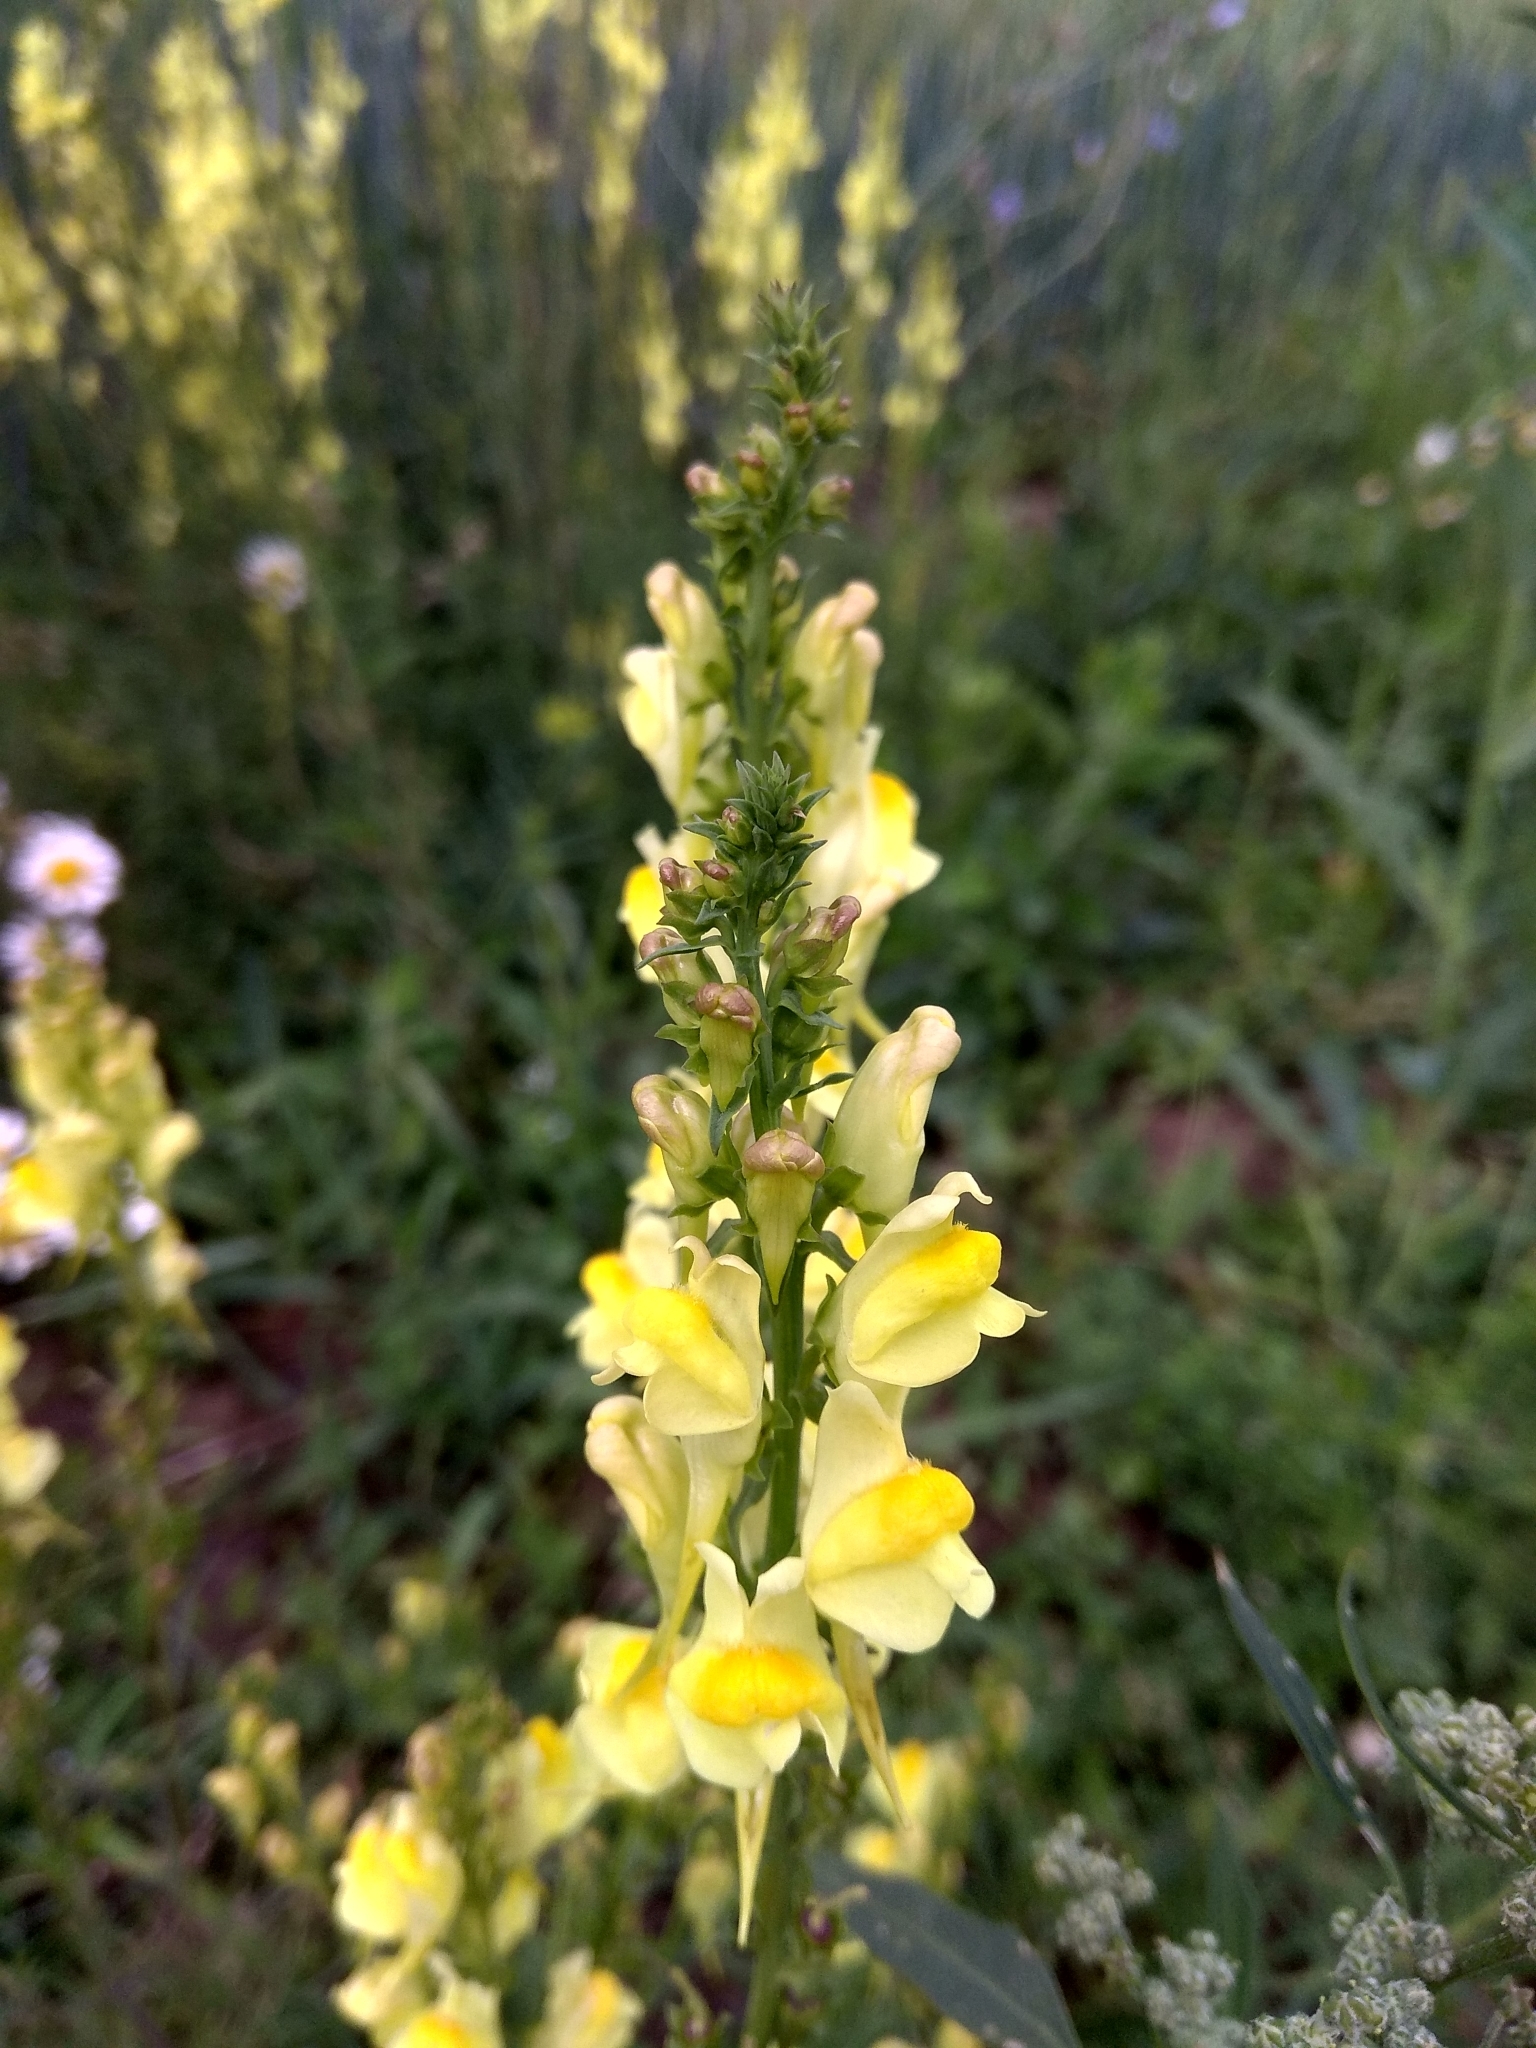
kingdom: Plantae
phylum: Tracheophyta
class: Magnoliopsida
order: Lamiales
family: Plantaginaceae
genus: Linaria
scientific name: Linaria vulgaris
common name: Butter and eggs
